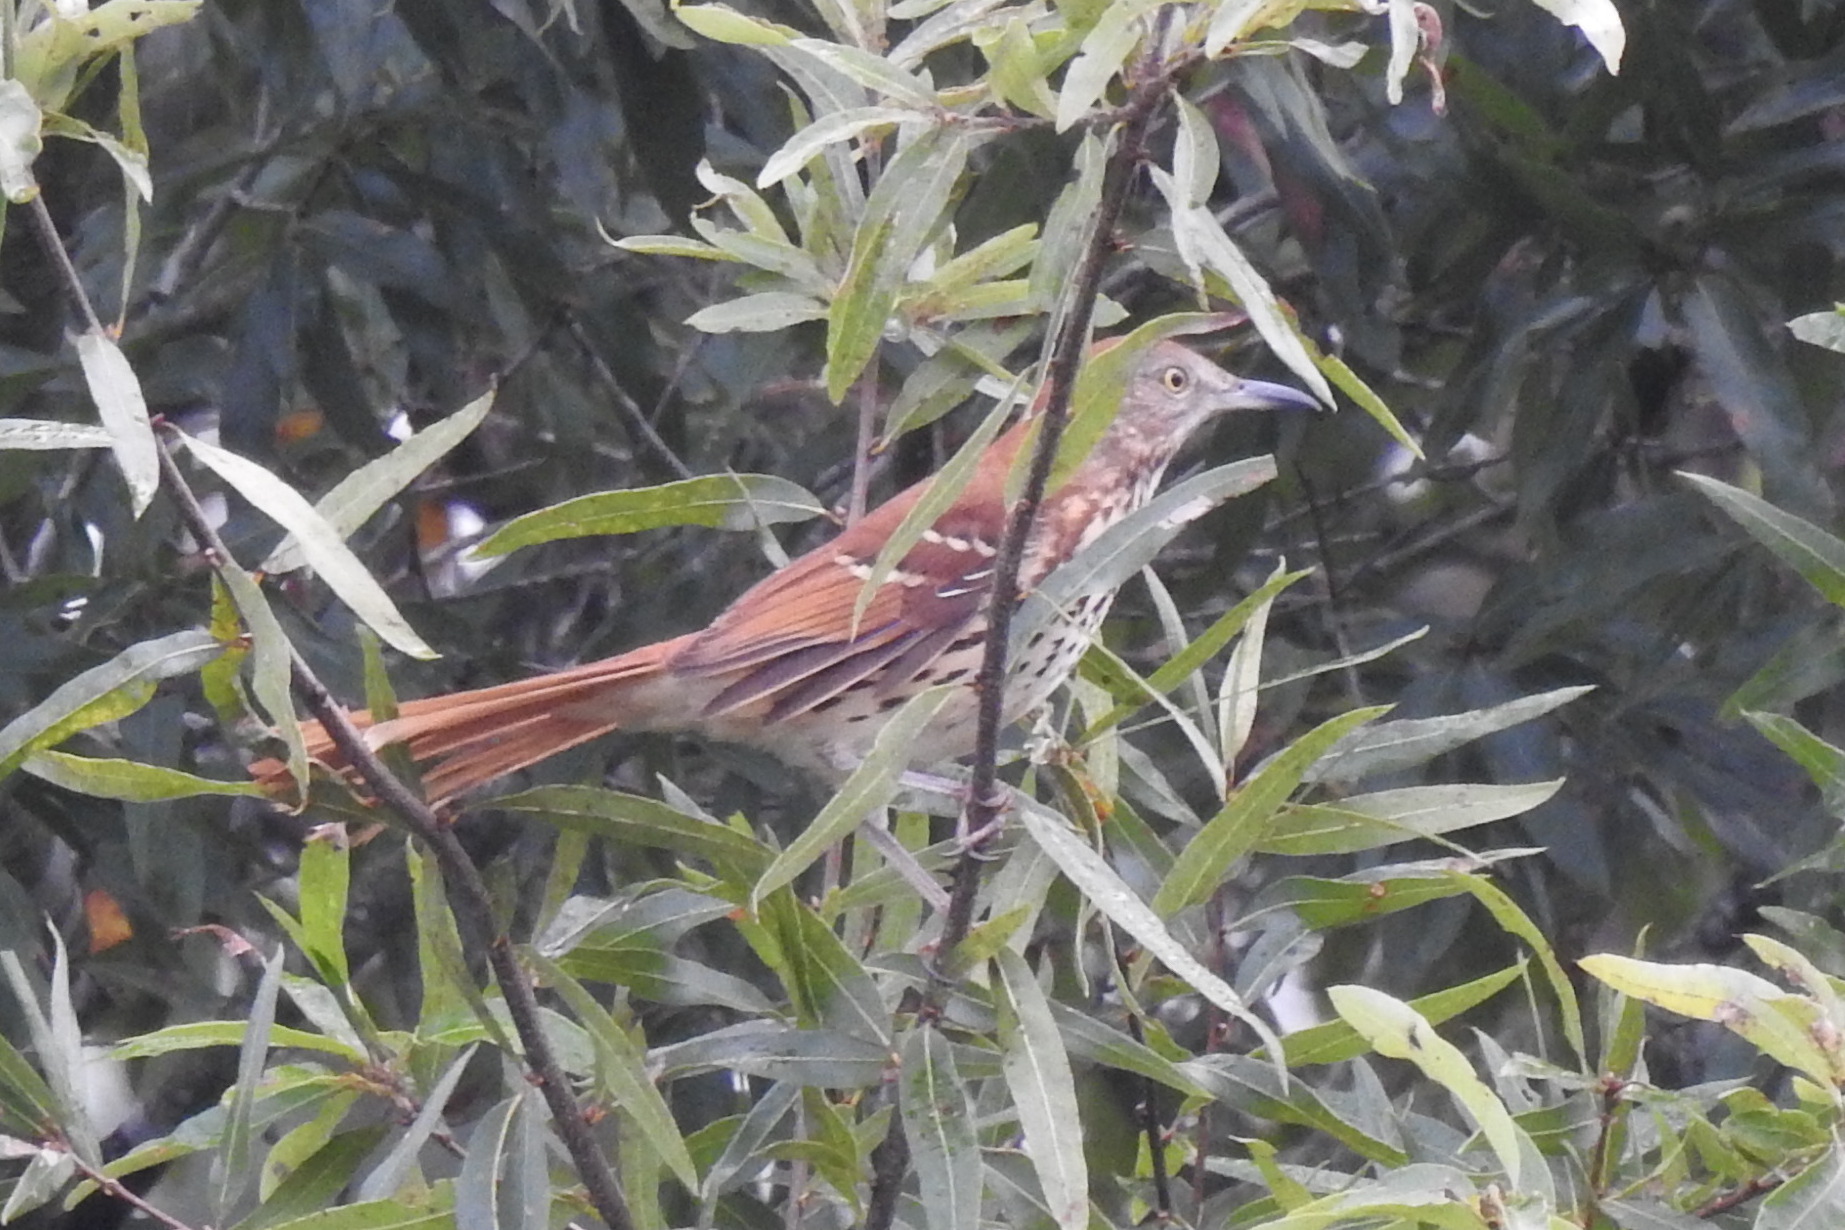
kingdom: Animalia
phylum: Chordata
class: Aves
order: Passeriformes
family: Mimidae
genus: Toxostoma
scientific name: Toxostoma rufum
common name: Brown thrasher
